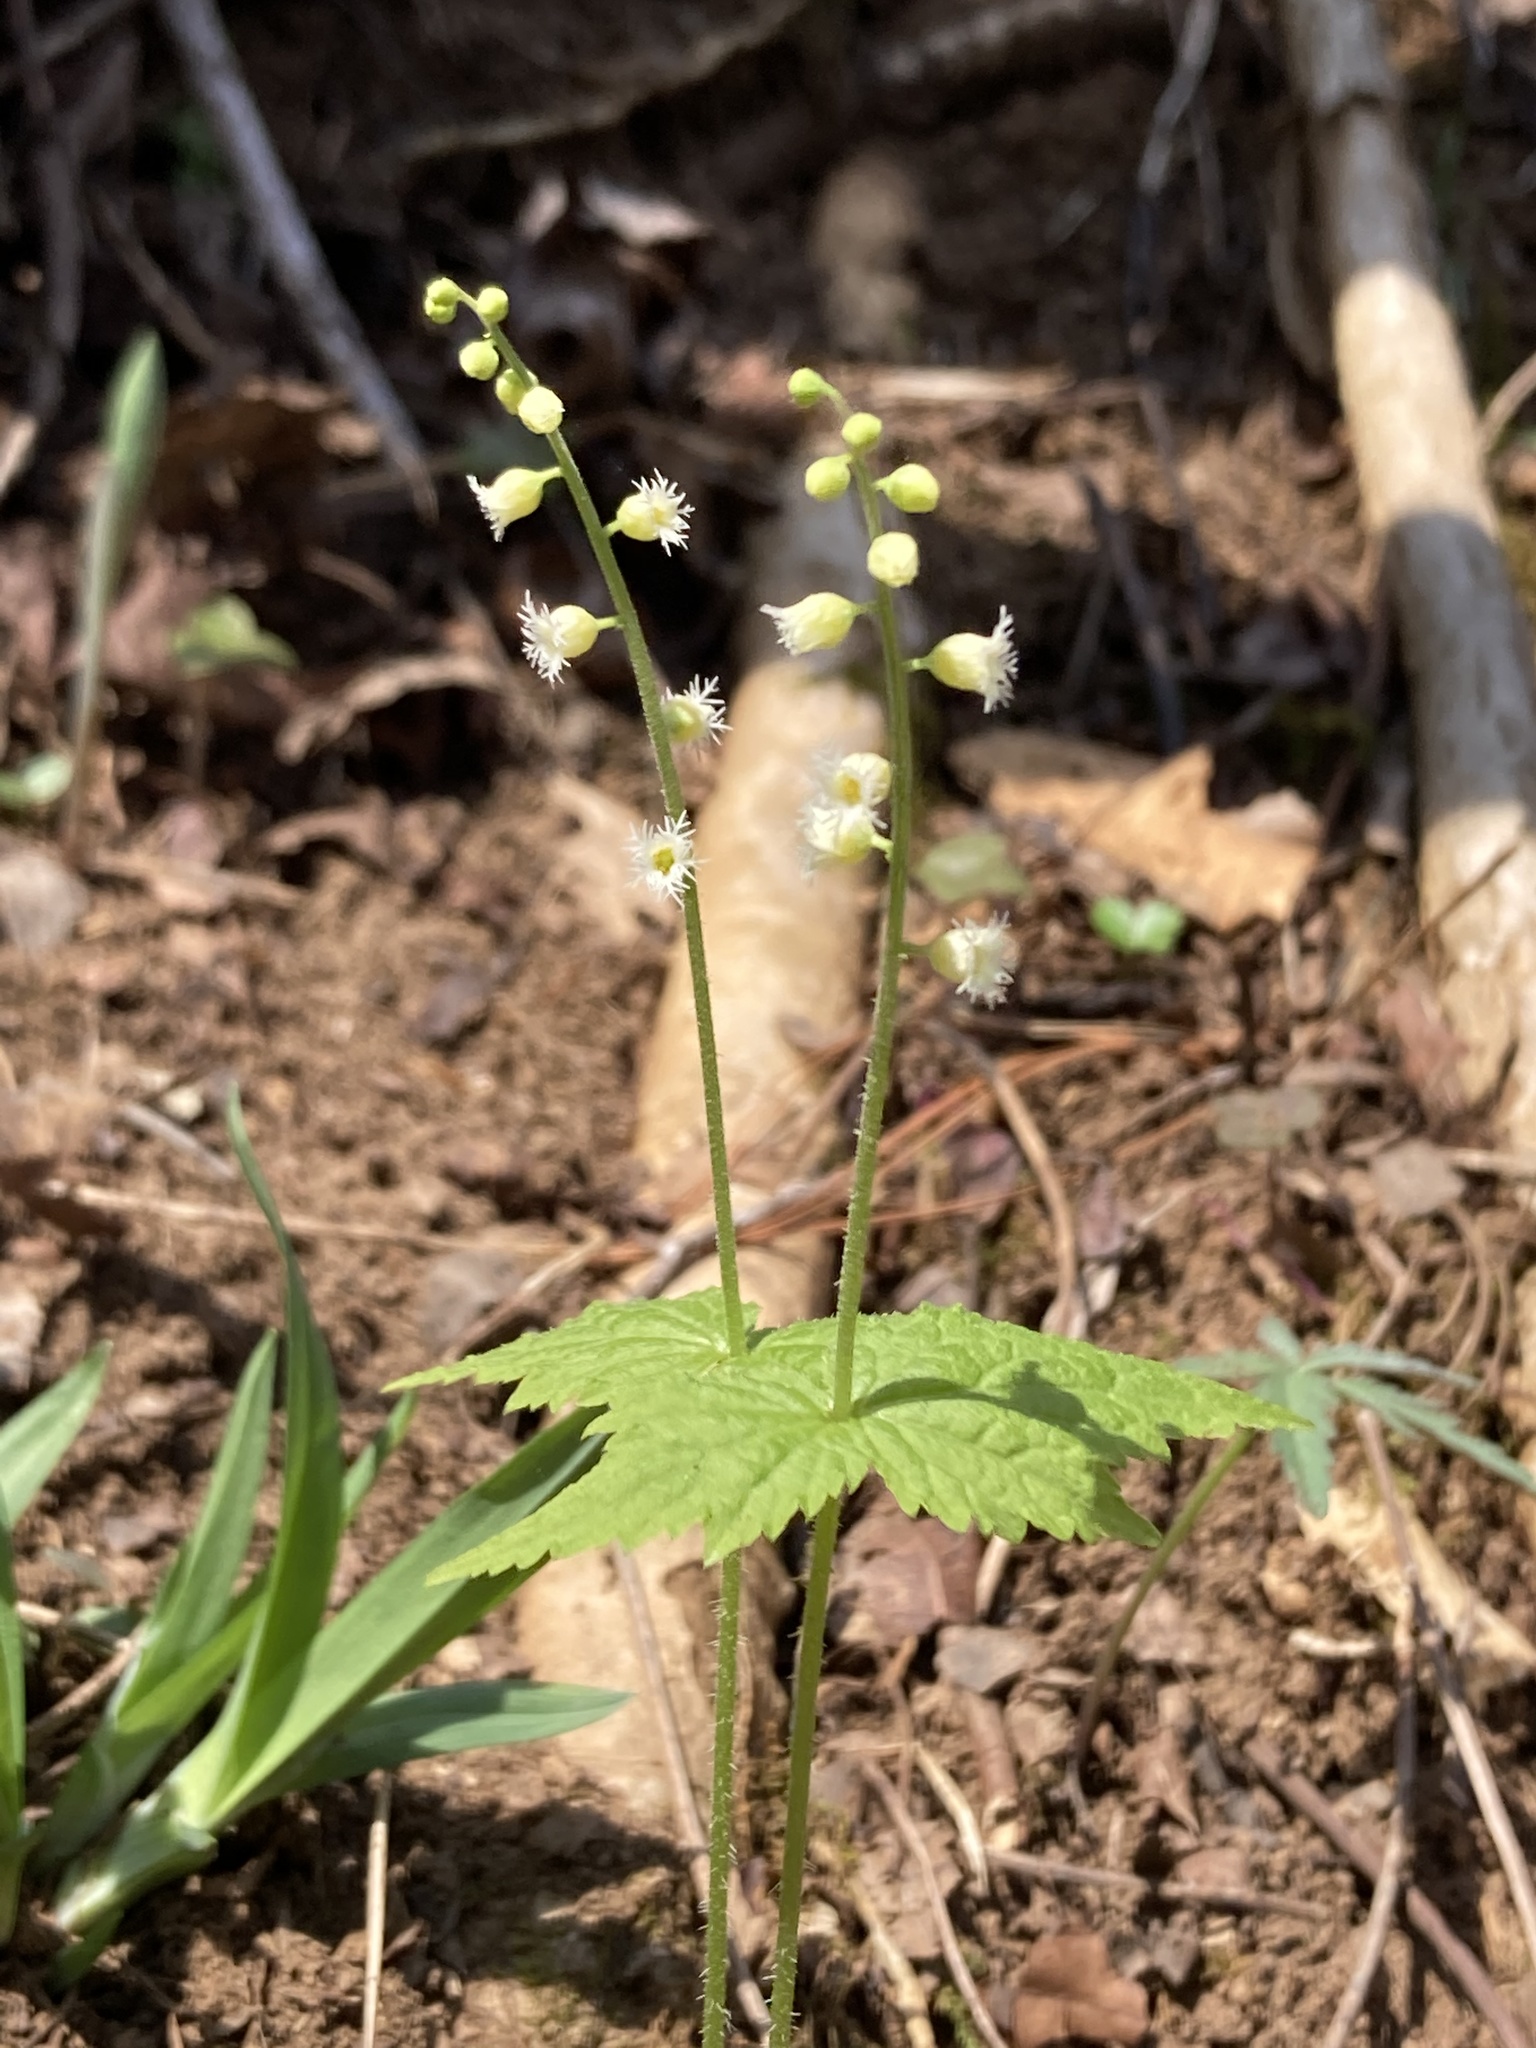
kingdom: Plantae
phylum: Tracheophyta
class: Magnoliopsida
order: Saxifragales
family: Saxifragaceae
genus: Mitella
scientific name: Mitella diphylla
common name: Coolwort
